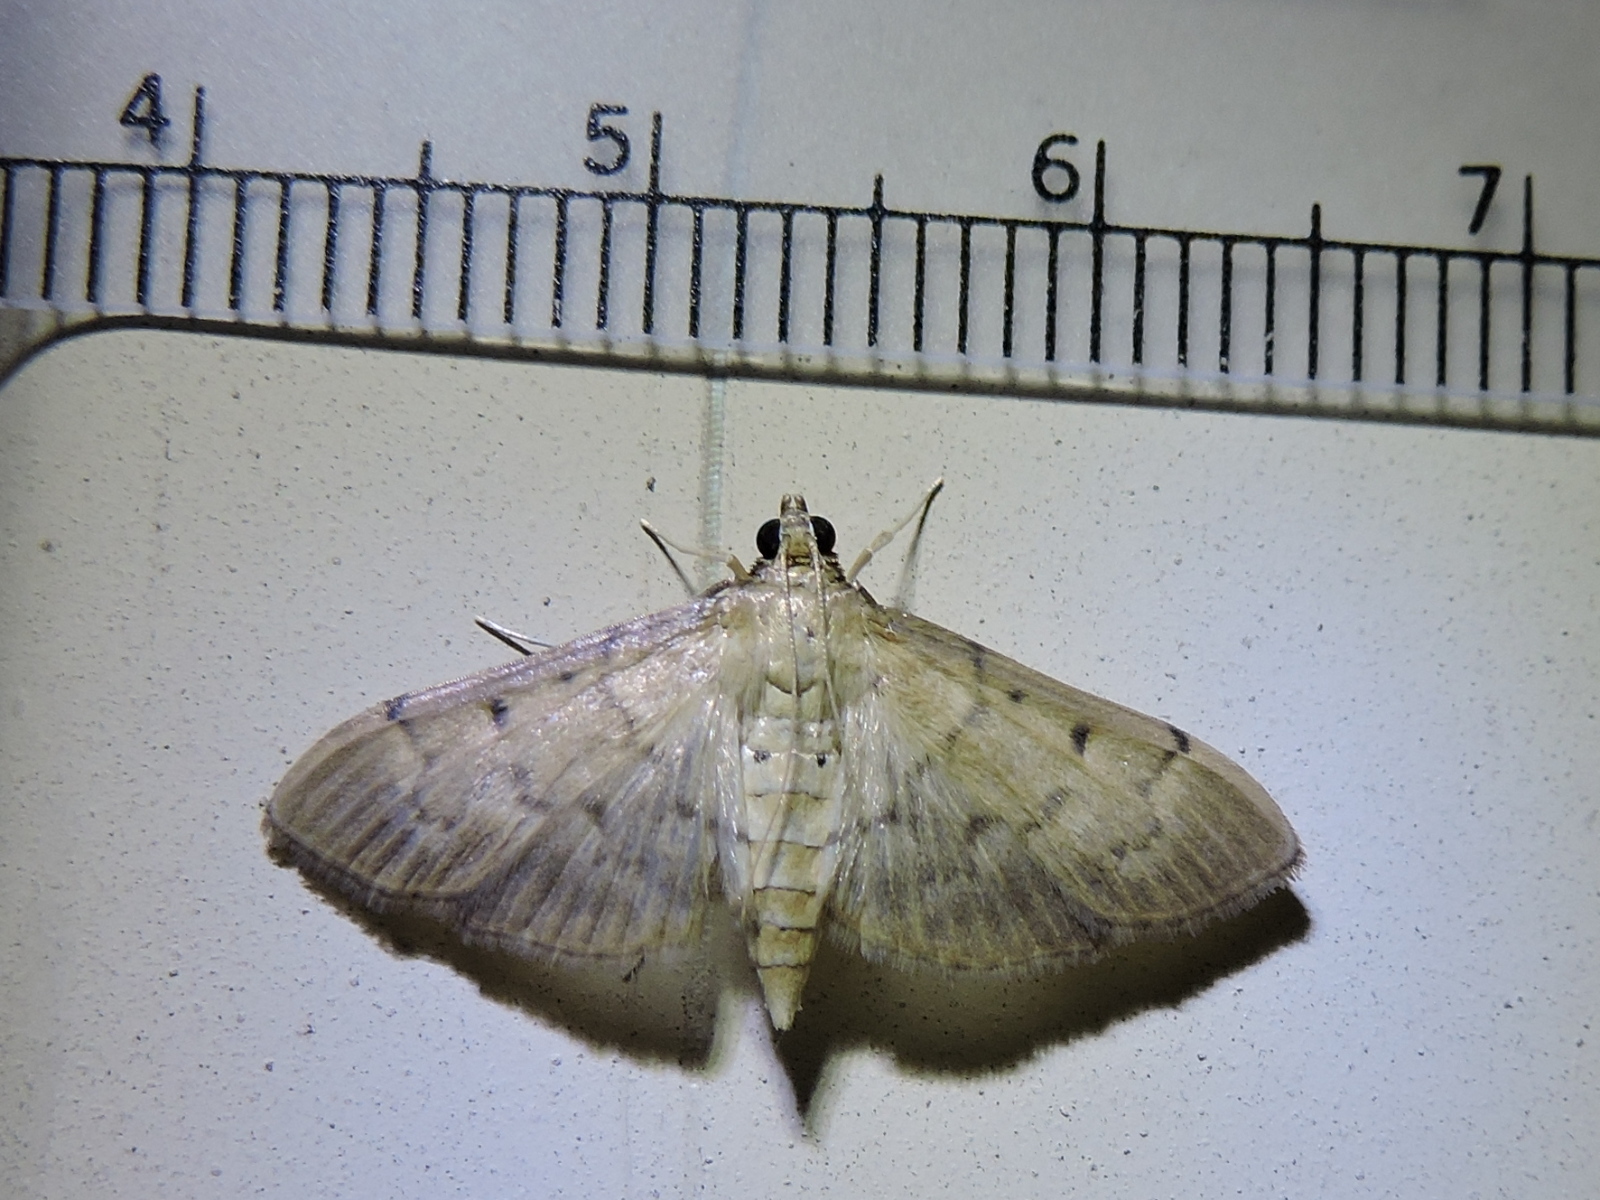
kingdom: Animalia
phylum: Arthropoda
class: Insecta
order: Lepidoptera
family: Crambidae
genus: Herpetogramma
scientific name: Herpetogramma bipunctalis
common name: Southern beet webworm
